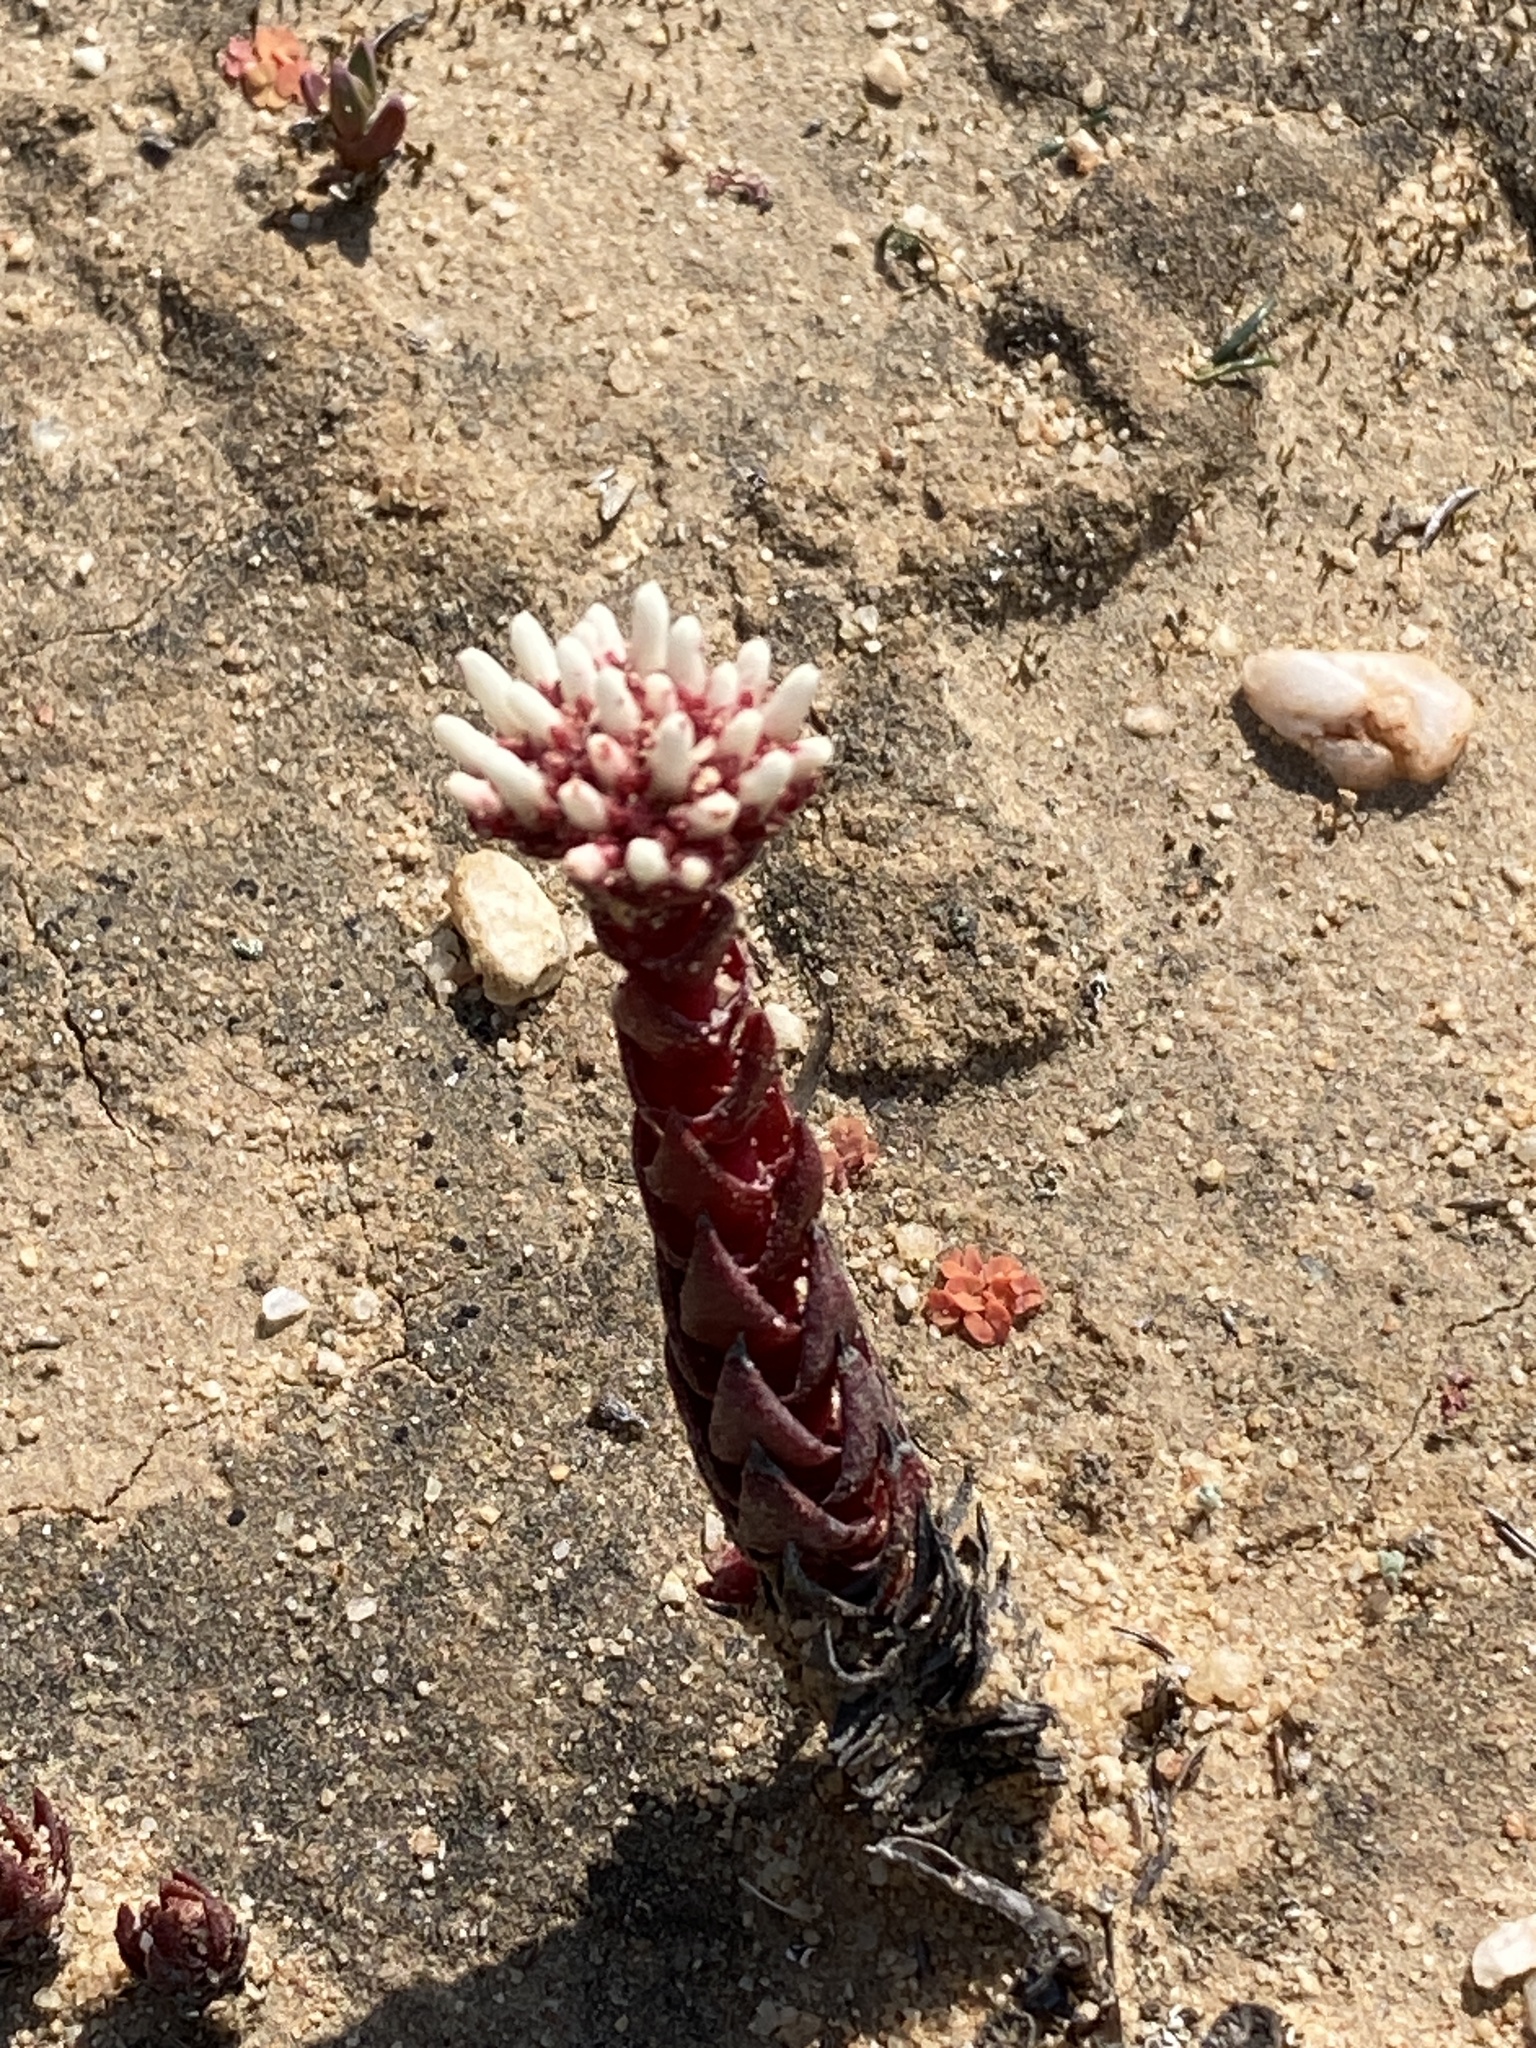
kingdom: Plantae
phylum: Tracheophyta
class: Magnoliopsida
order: Saxifragales
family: Crassulaceae
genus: Crassula
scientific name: Crassula alpestris
